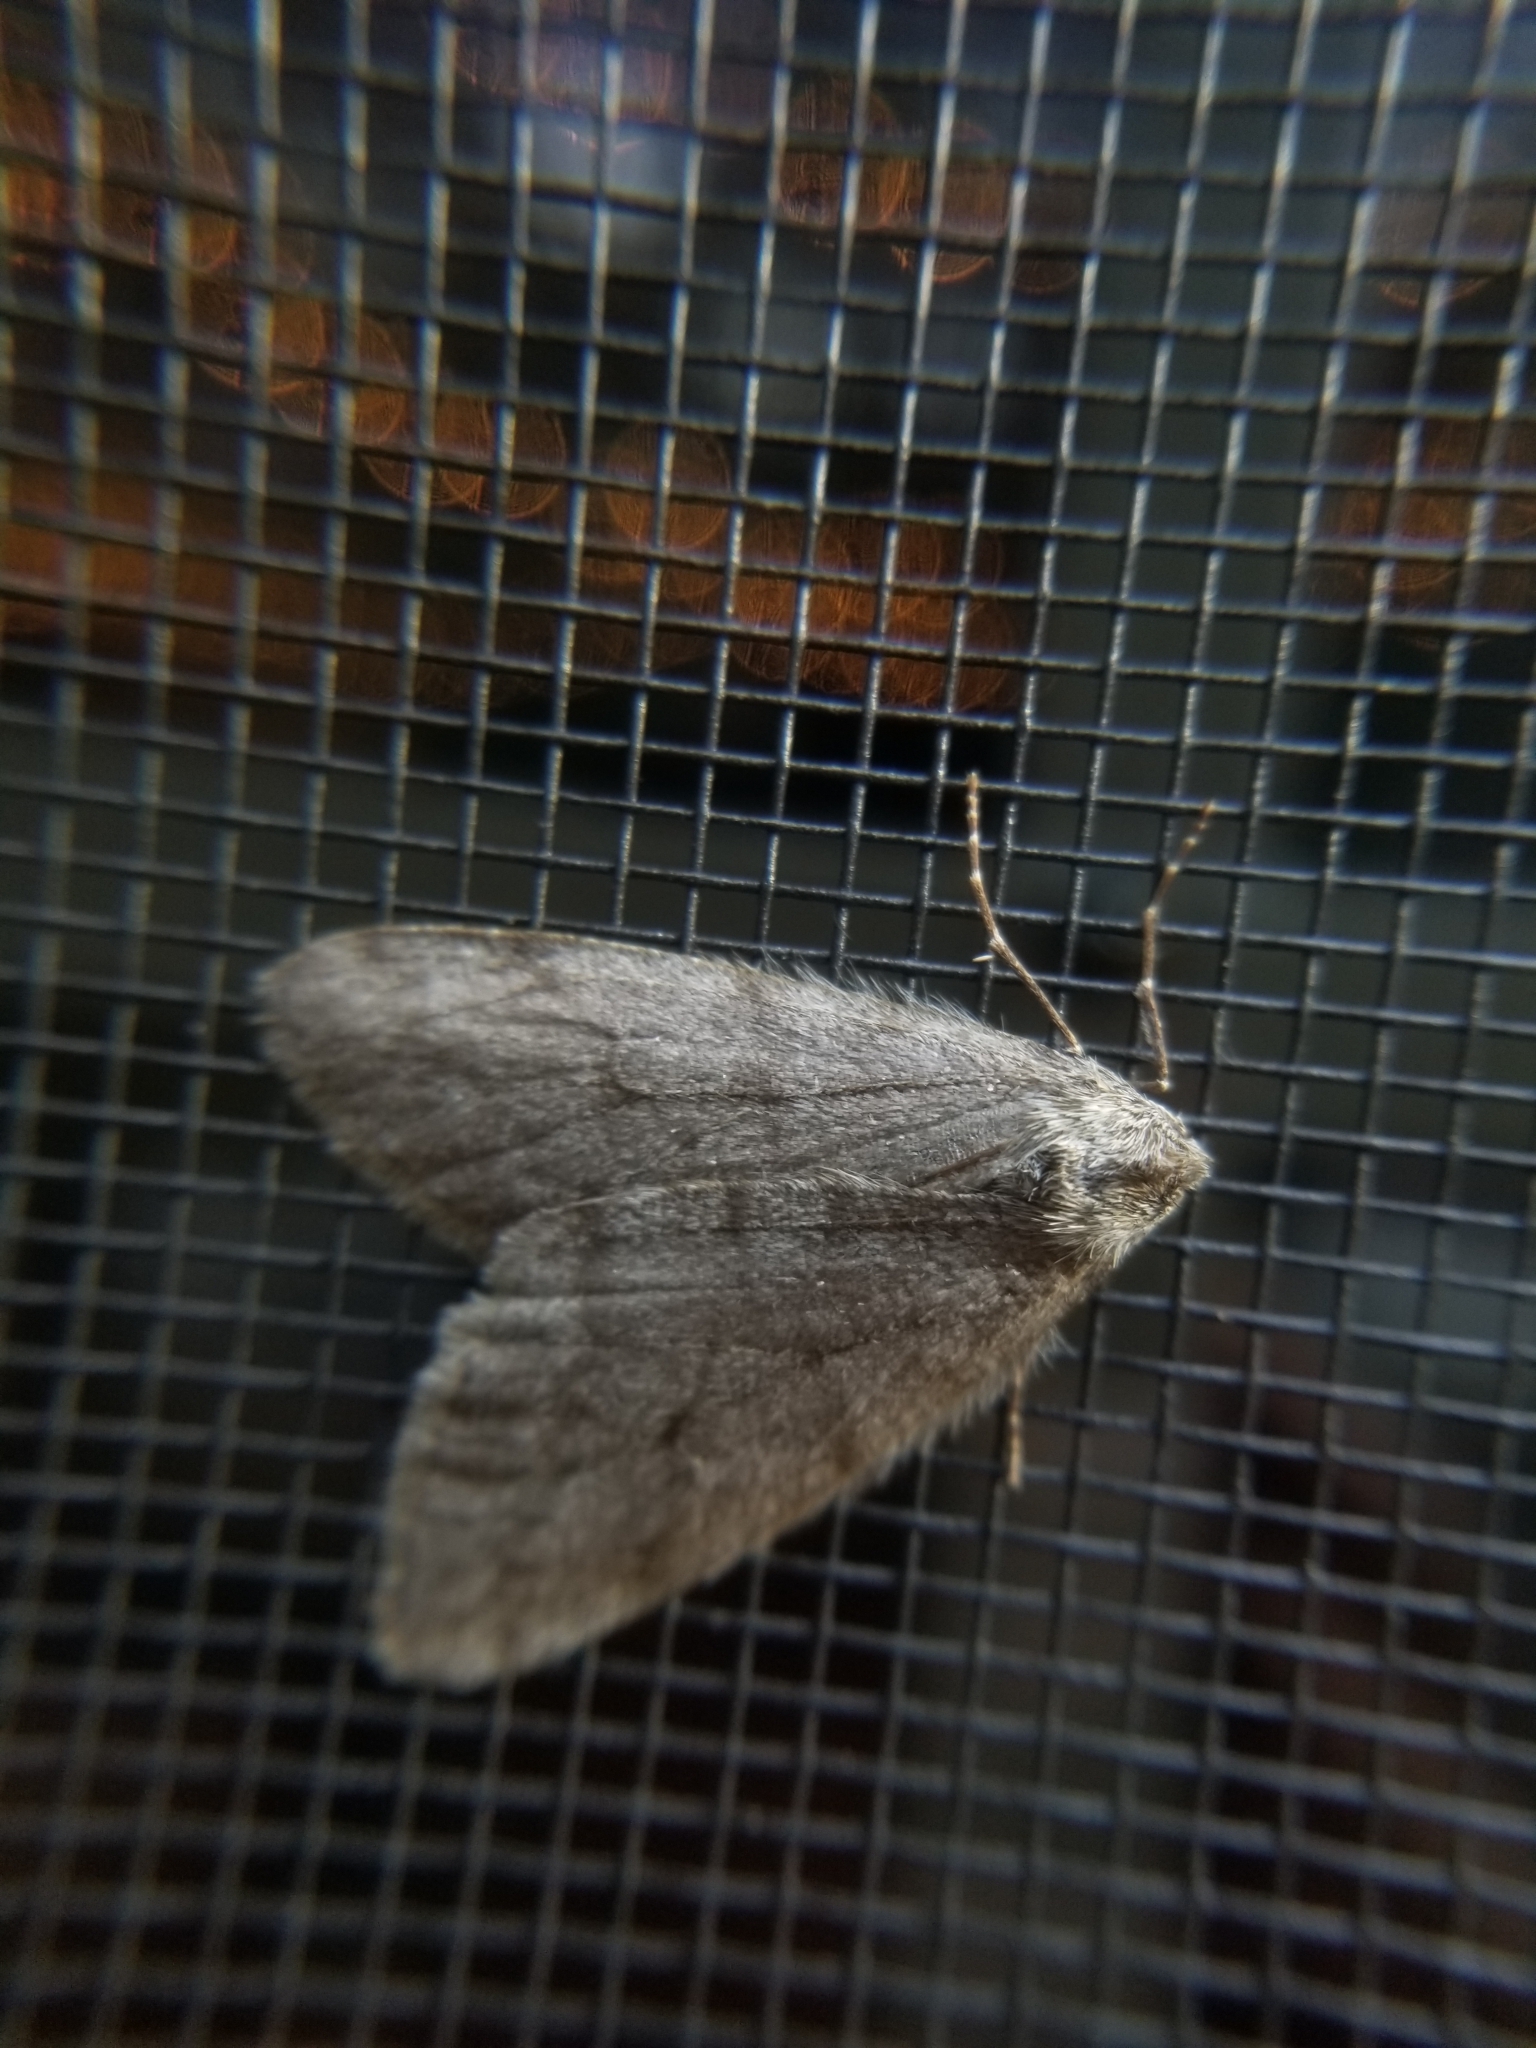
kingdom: Animalia
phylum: Arthropoda
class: Insecta
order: Lepidoptera
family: Geometridae
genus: Phigalia
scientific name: Phigalia plumogeraria
